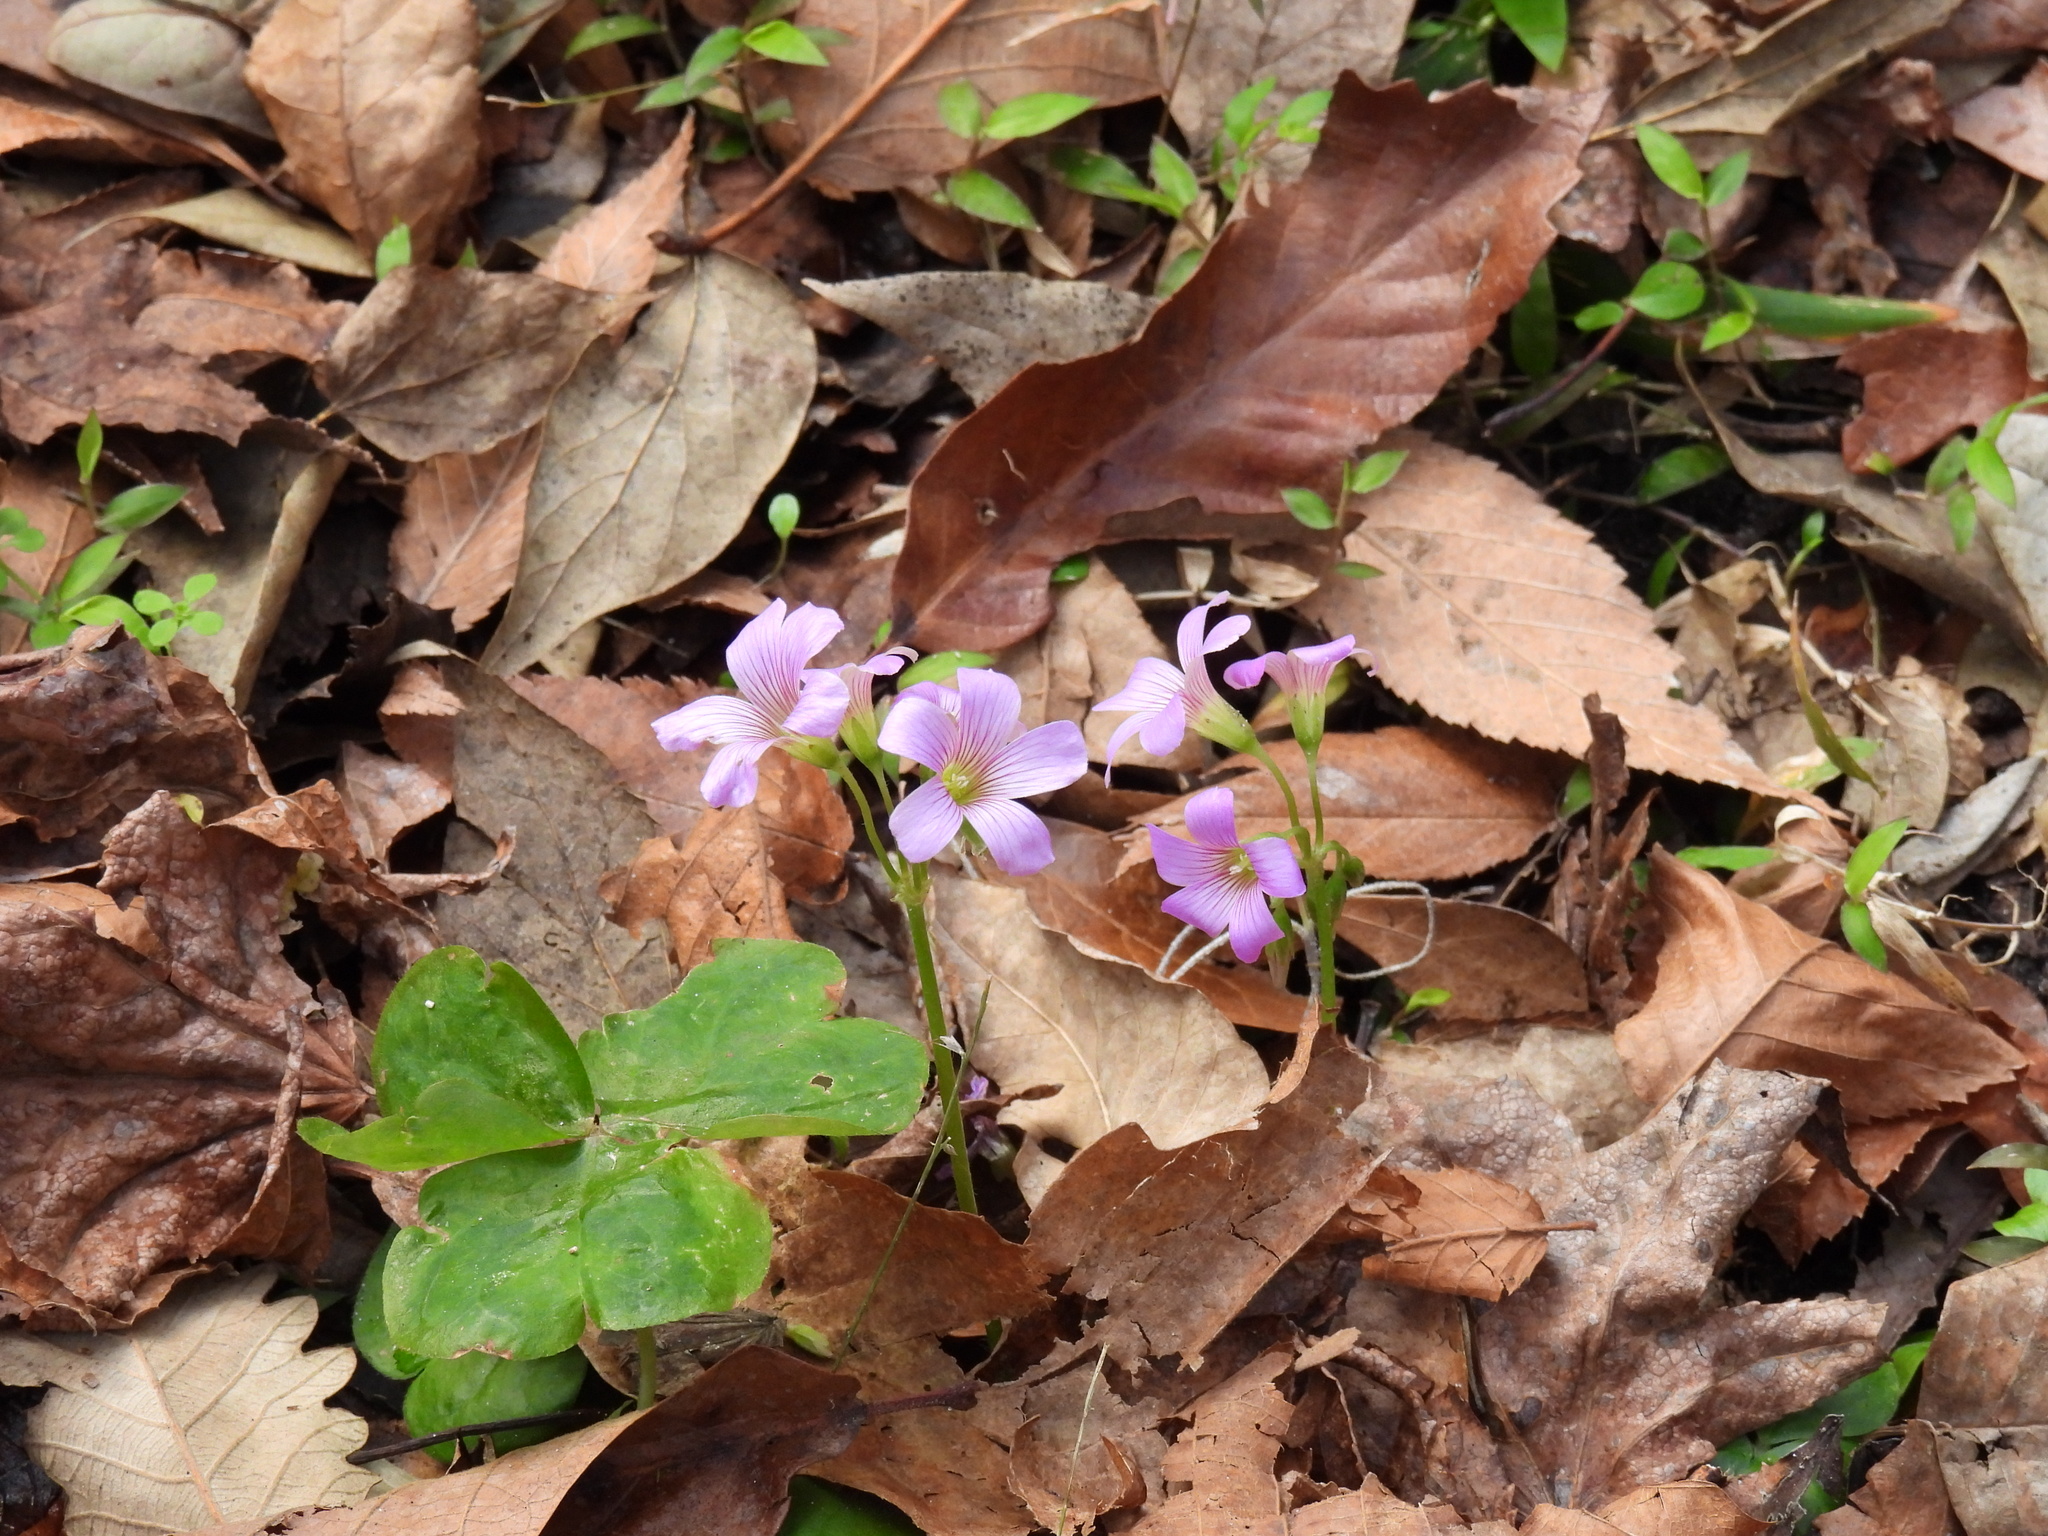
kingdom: Plantae
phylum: Tracheophyta
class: Magnoliopsida
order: Oxalidales
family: Oxalidaceae
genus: Oxalis
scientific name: Oxalis debilis
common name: Large-flowered pink-sorrel
